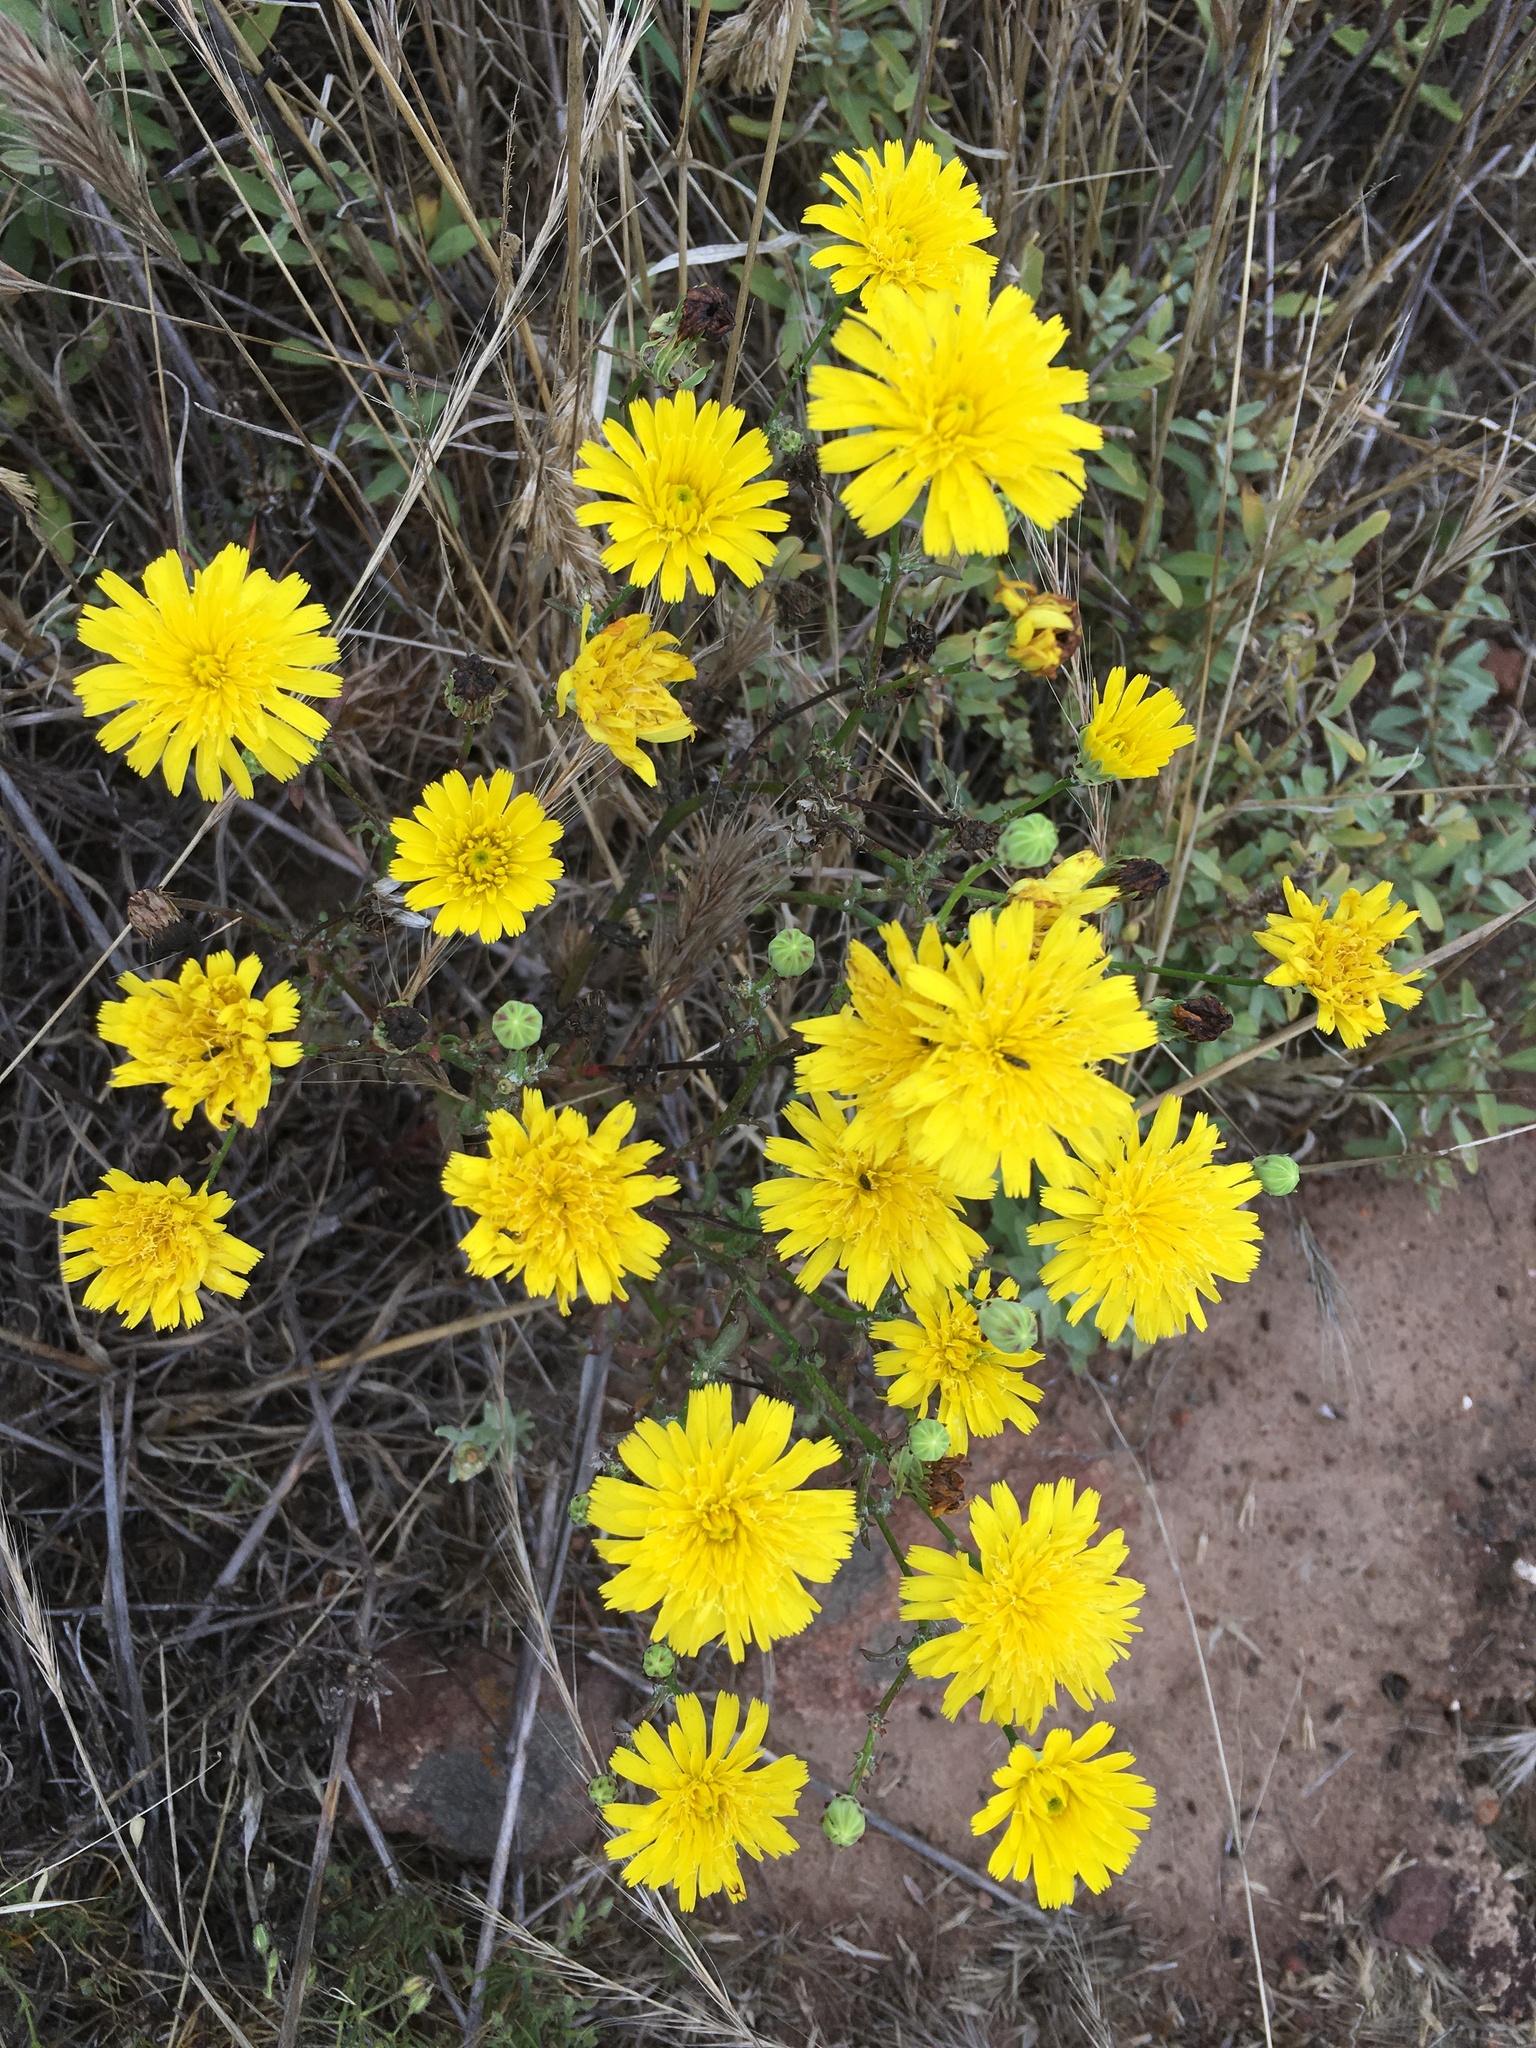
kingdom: Plantae
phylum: Tracheophyta
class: Magnoliopsida
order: Asterales
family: Asteraceae
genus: Malacothrix
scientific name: Malacothrix foliosa
